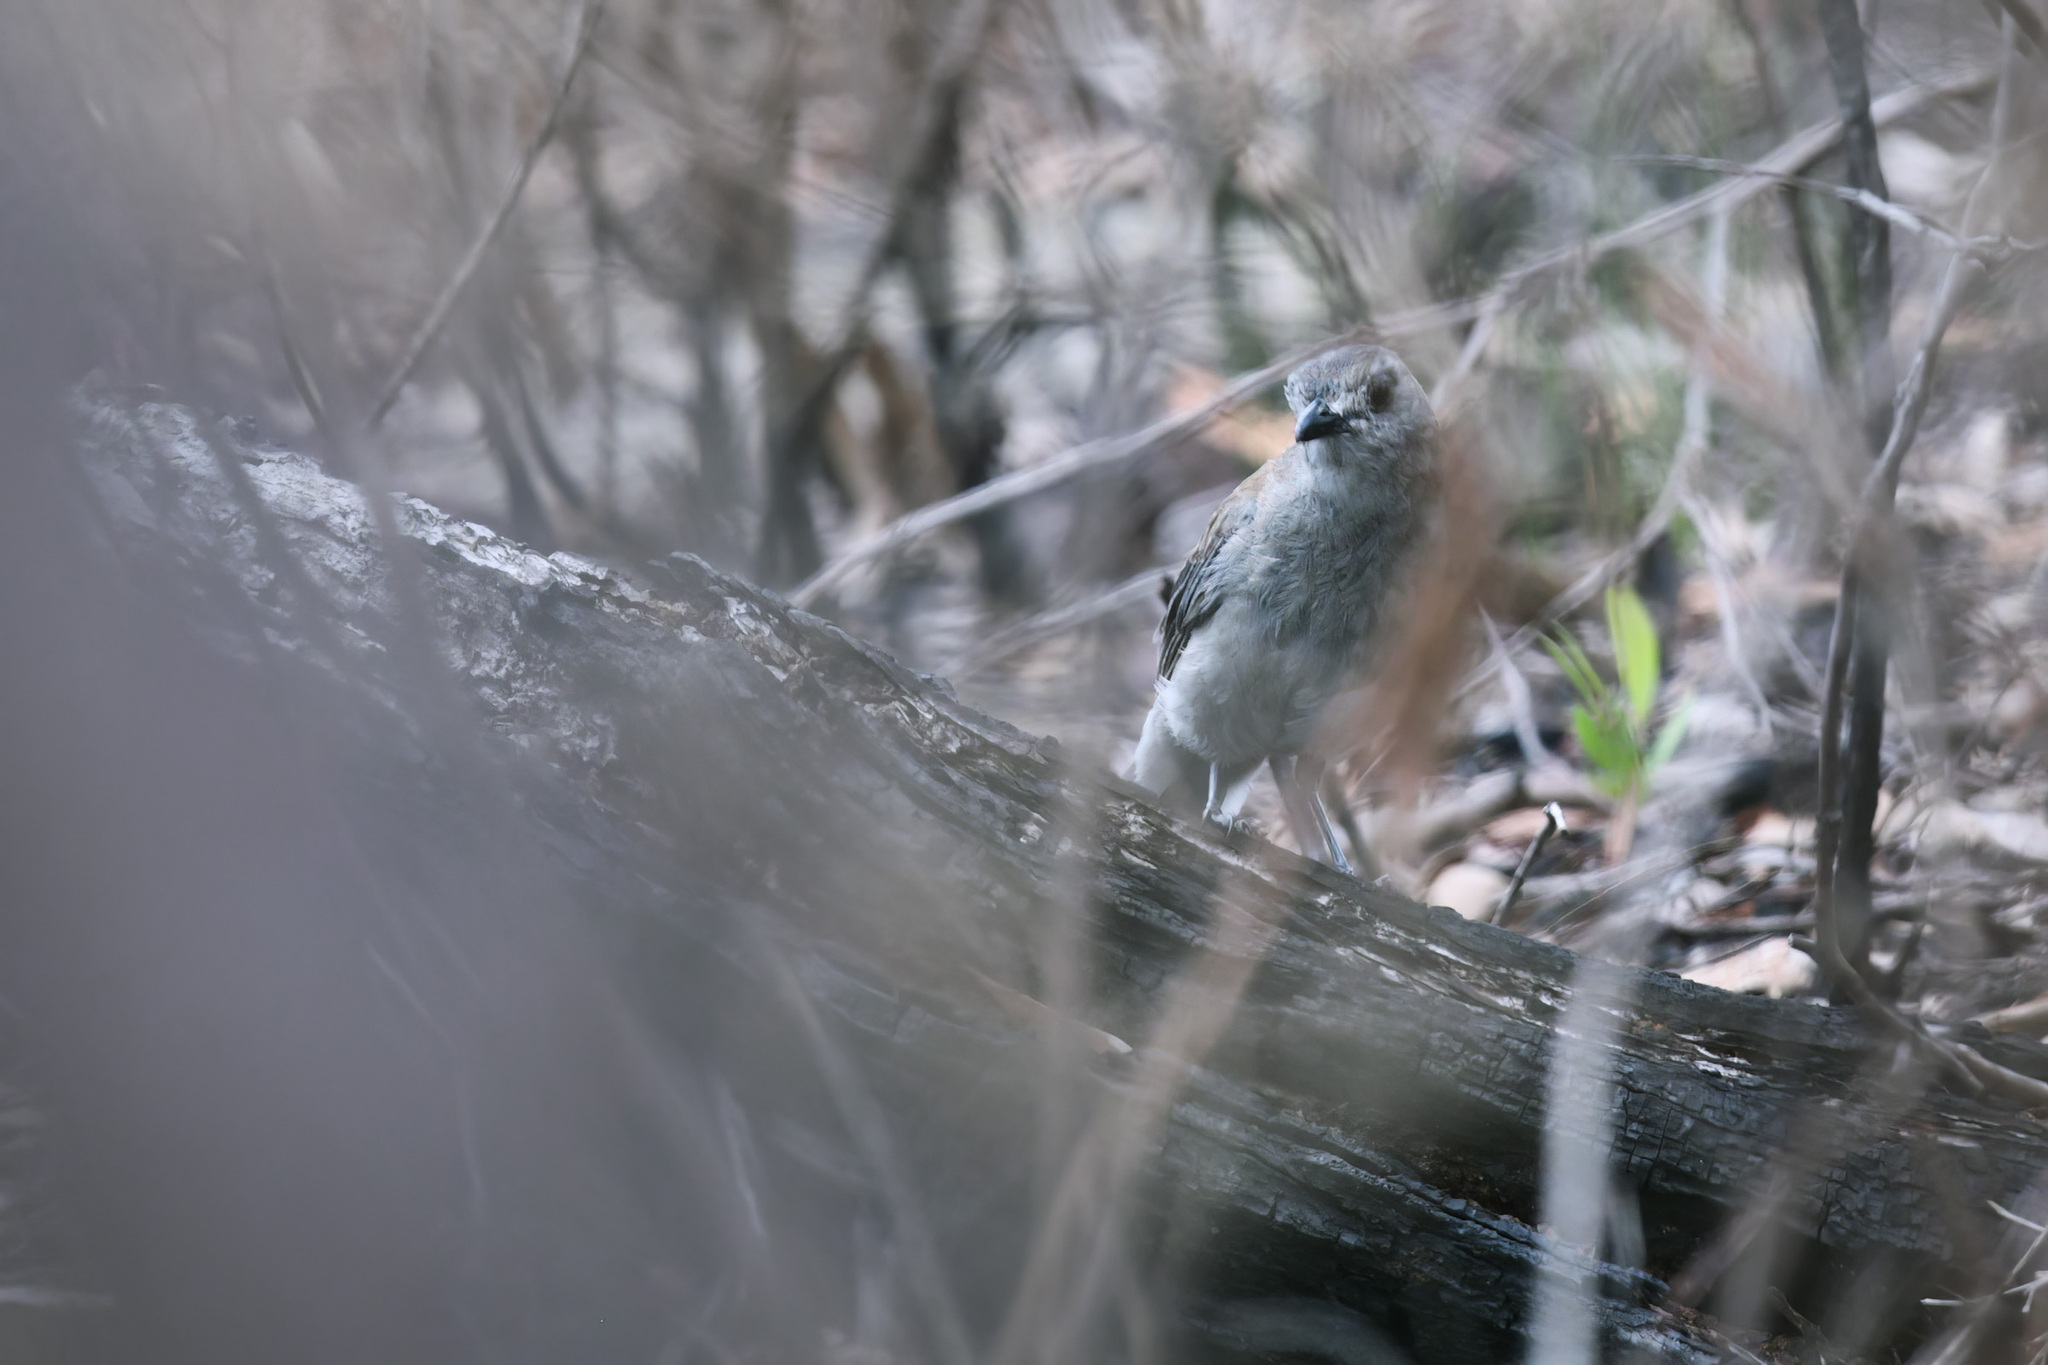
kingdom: Animalia
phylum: Chordata
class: Aves
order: Passeriformes
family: Pachycephalidae
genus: Colluricincla
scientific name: Colluricincla harmonica
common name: Grey shrikethrush
